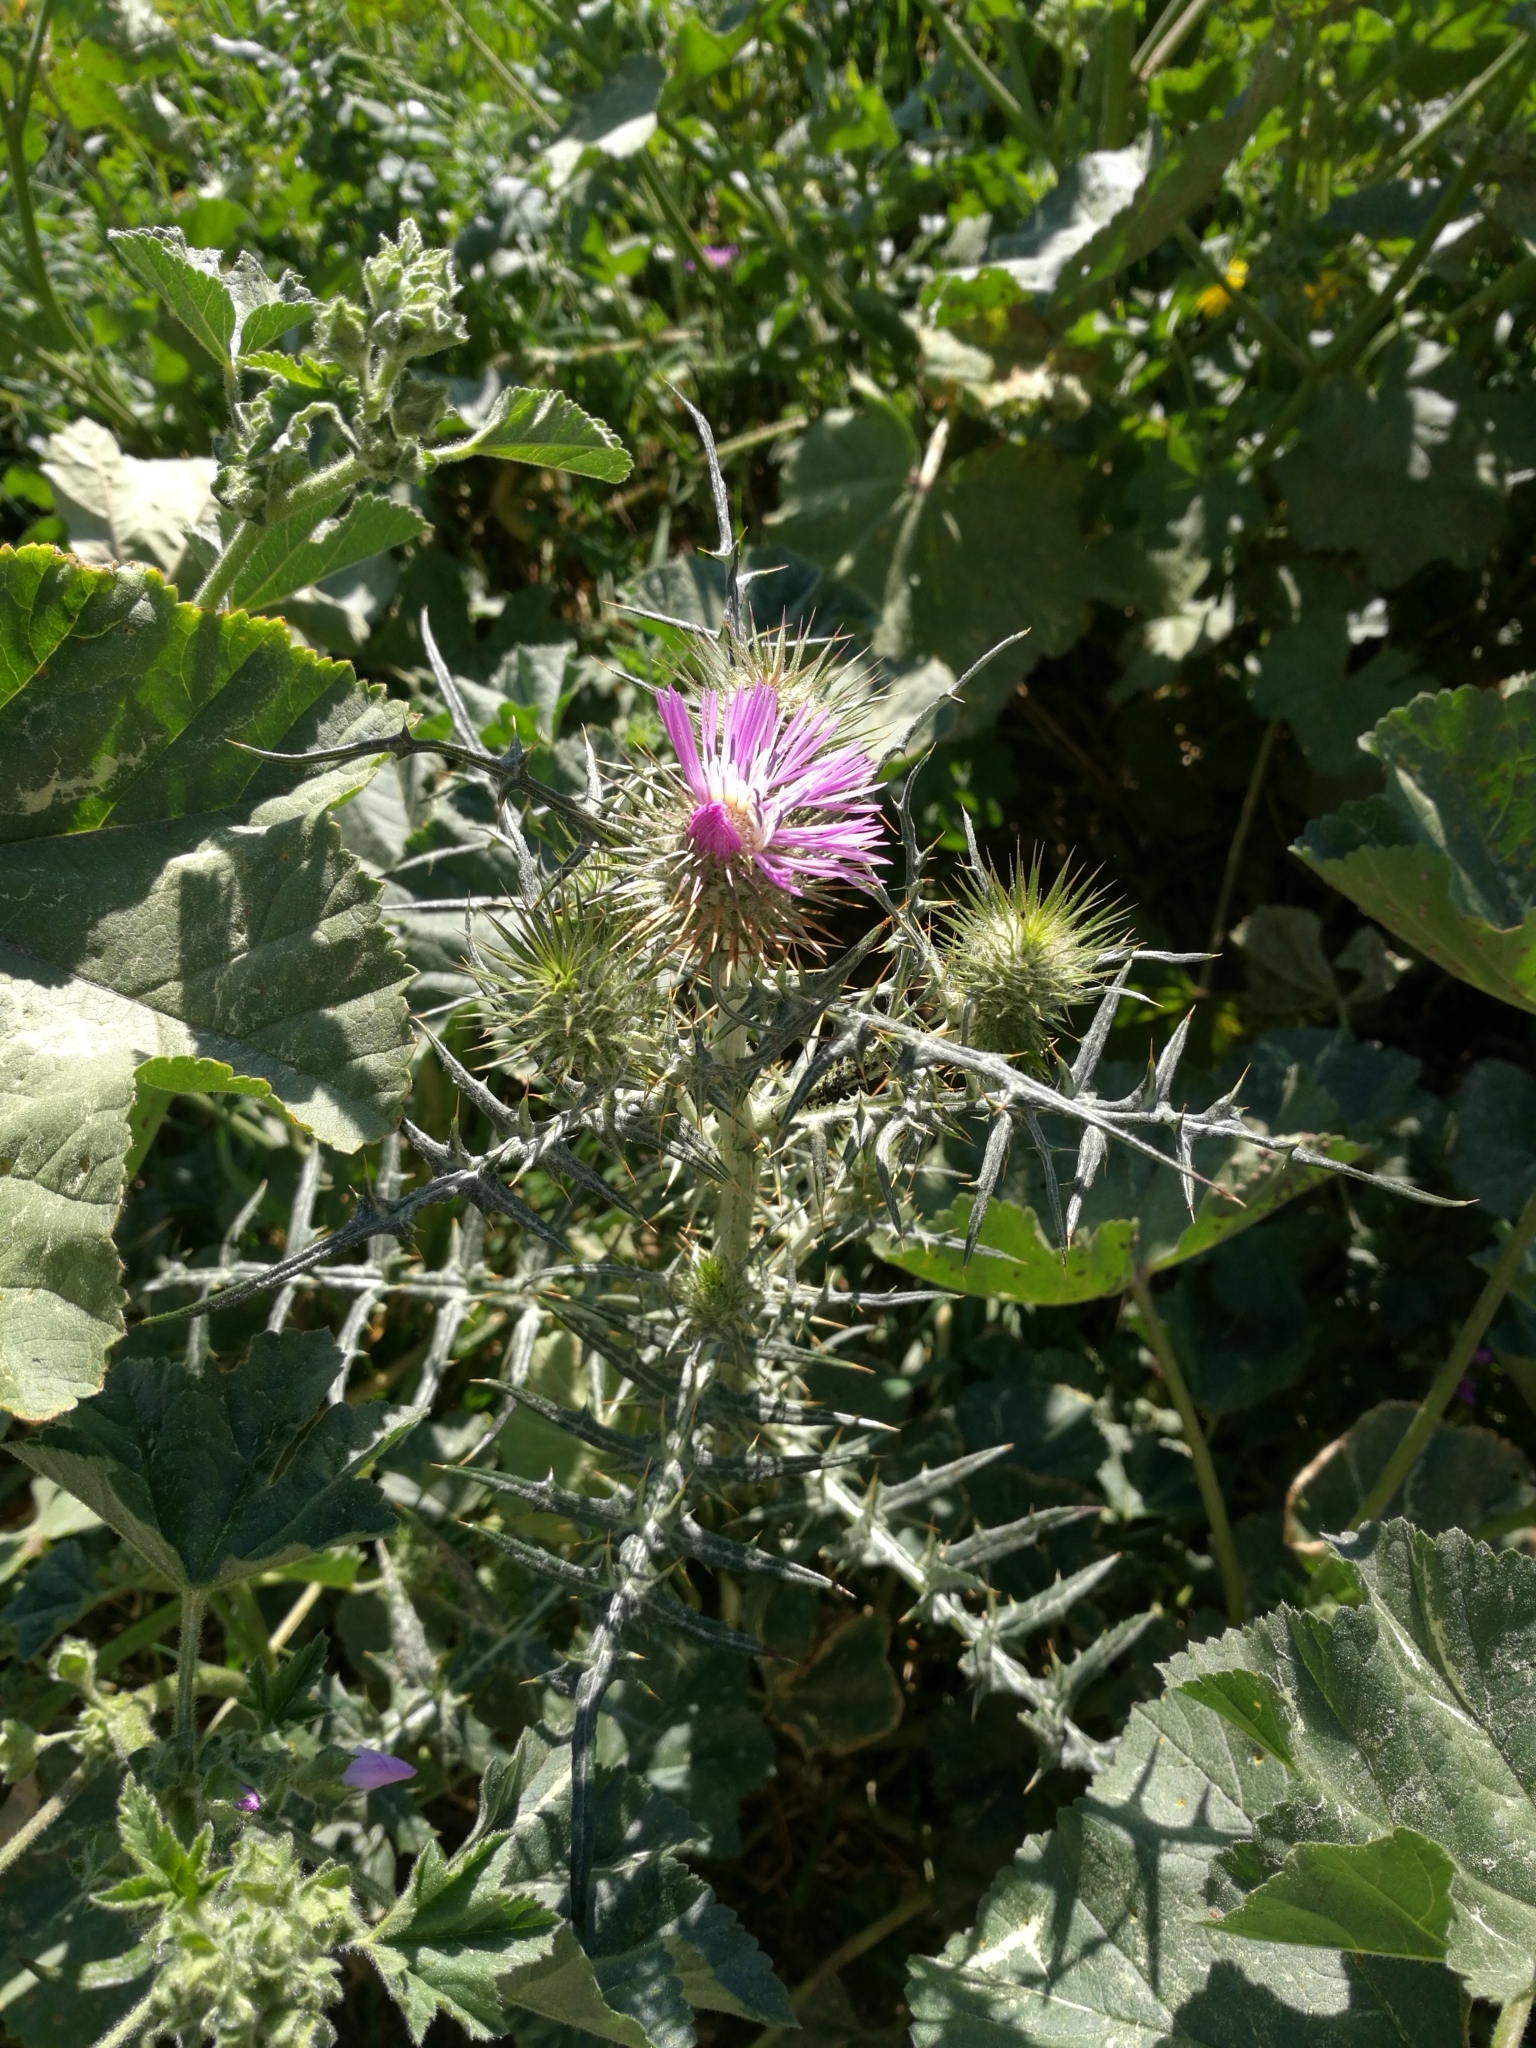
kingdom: Plantae
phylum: Tracheophyta
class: Magnoliopsida
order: Asterales
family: Asteraceae
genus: Galactites
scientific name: Galactites tomentosa
